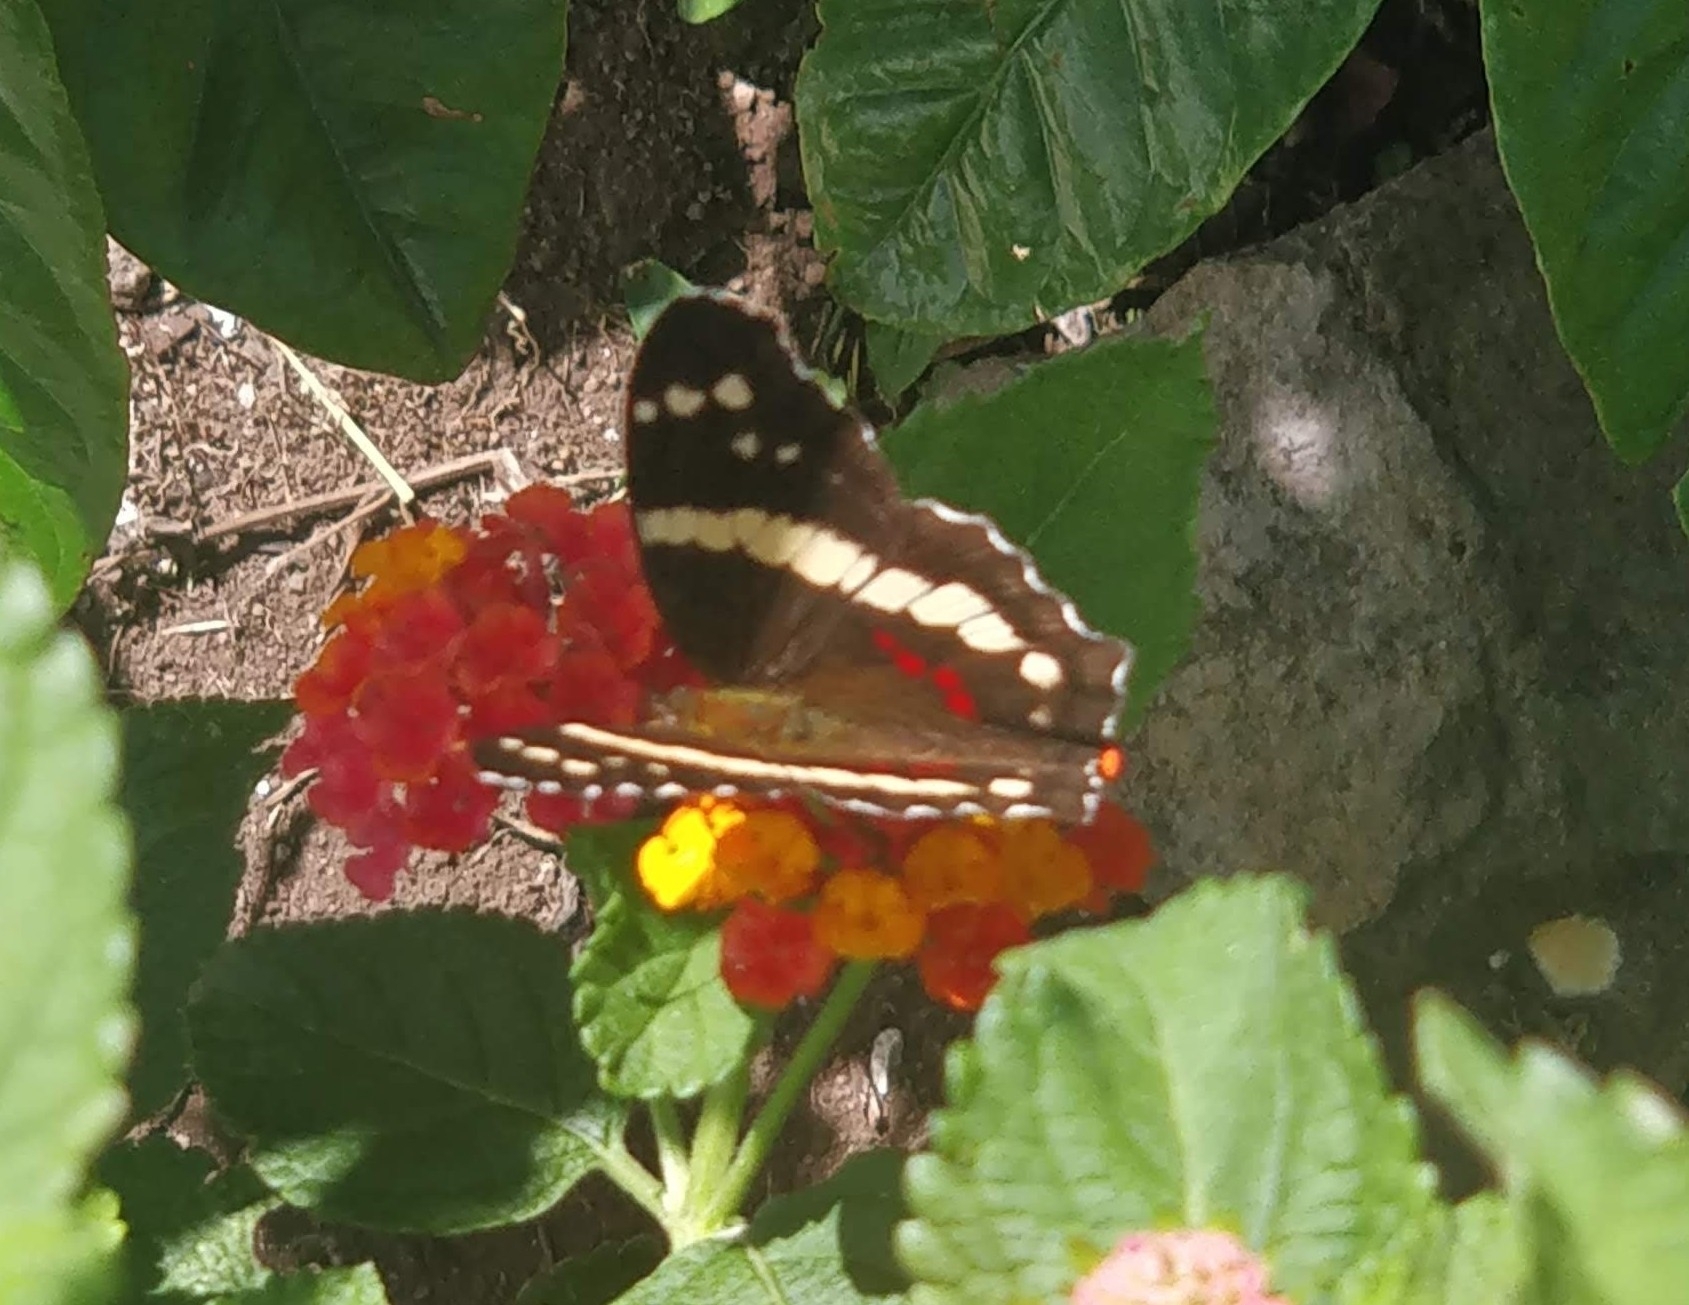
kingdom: Animalia
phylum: Arthropoda
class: Insecta
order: Lepidoptera
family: Nymphalidae
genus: Anartia
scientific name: Anartia fatima
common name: Banded peacock
